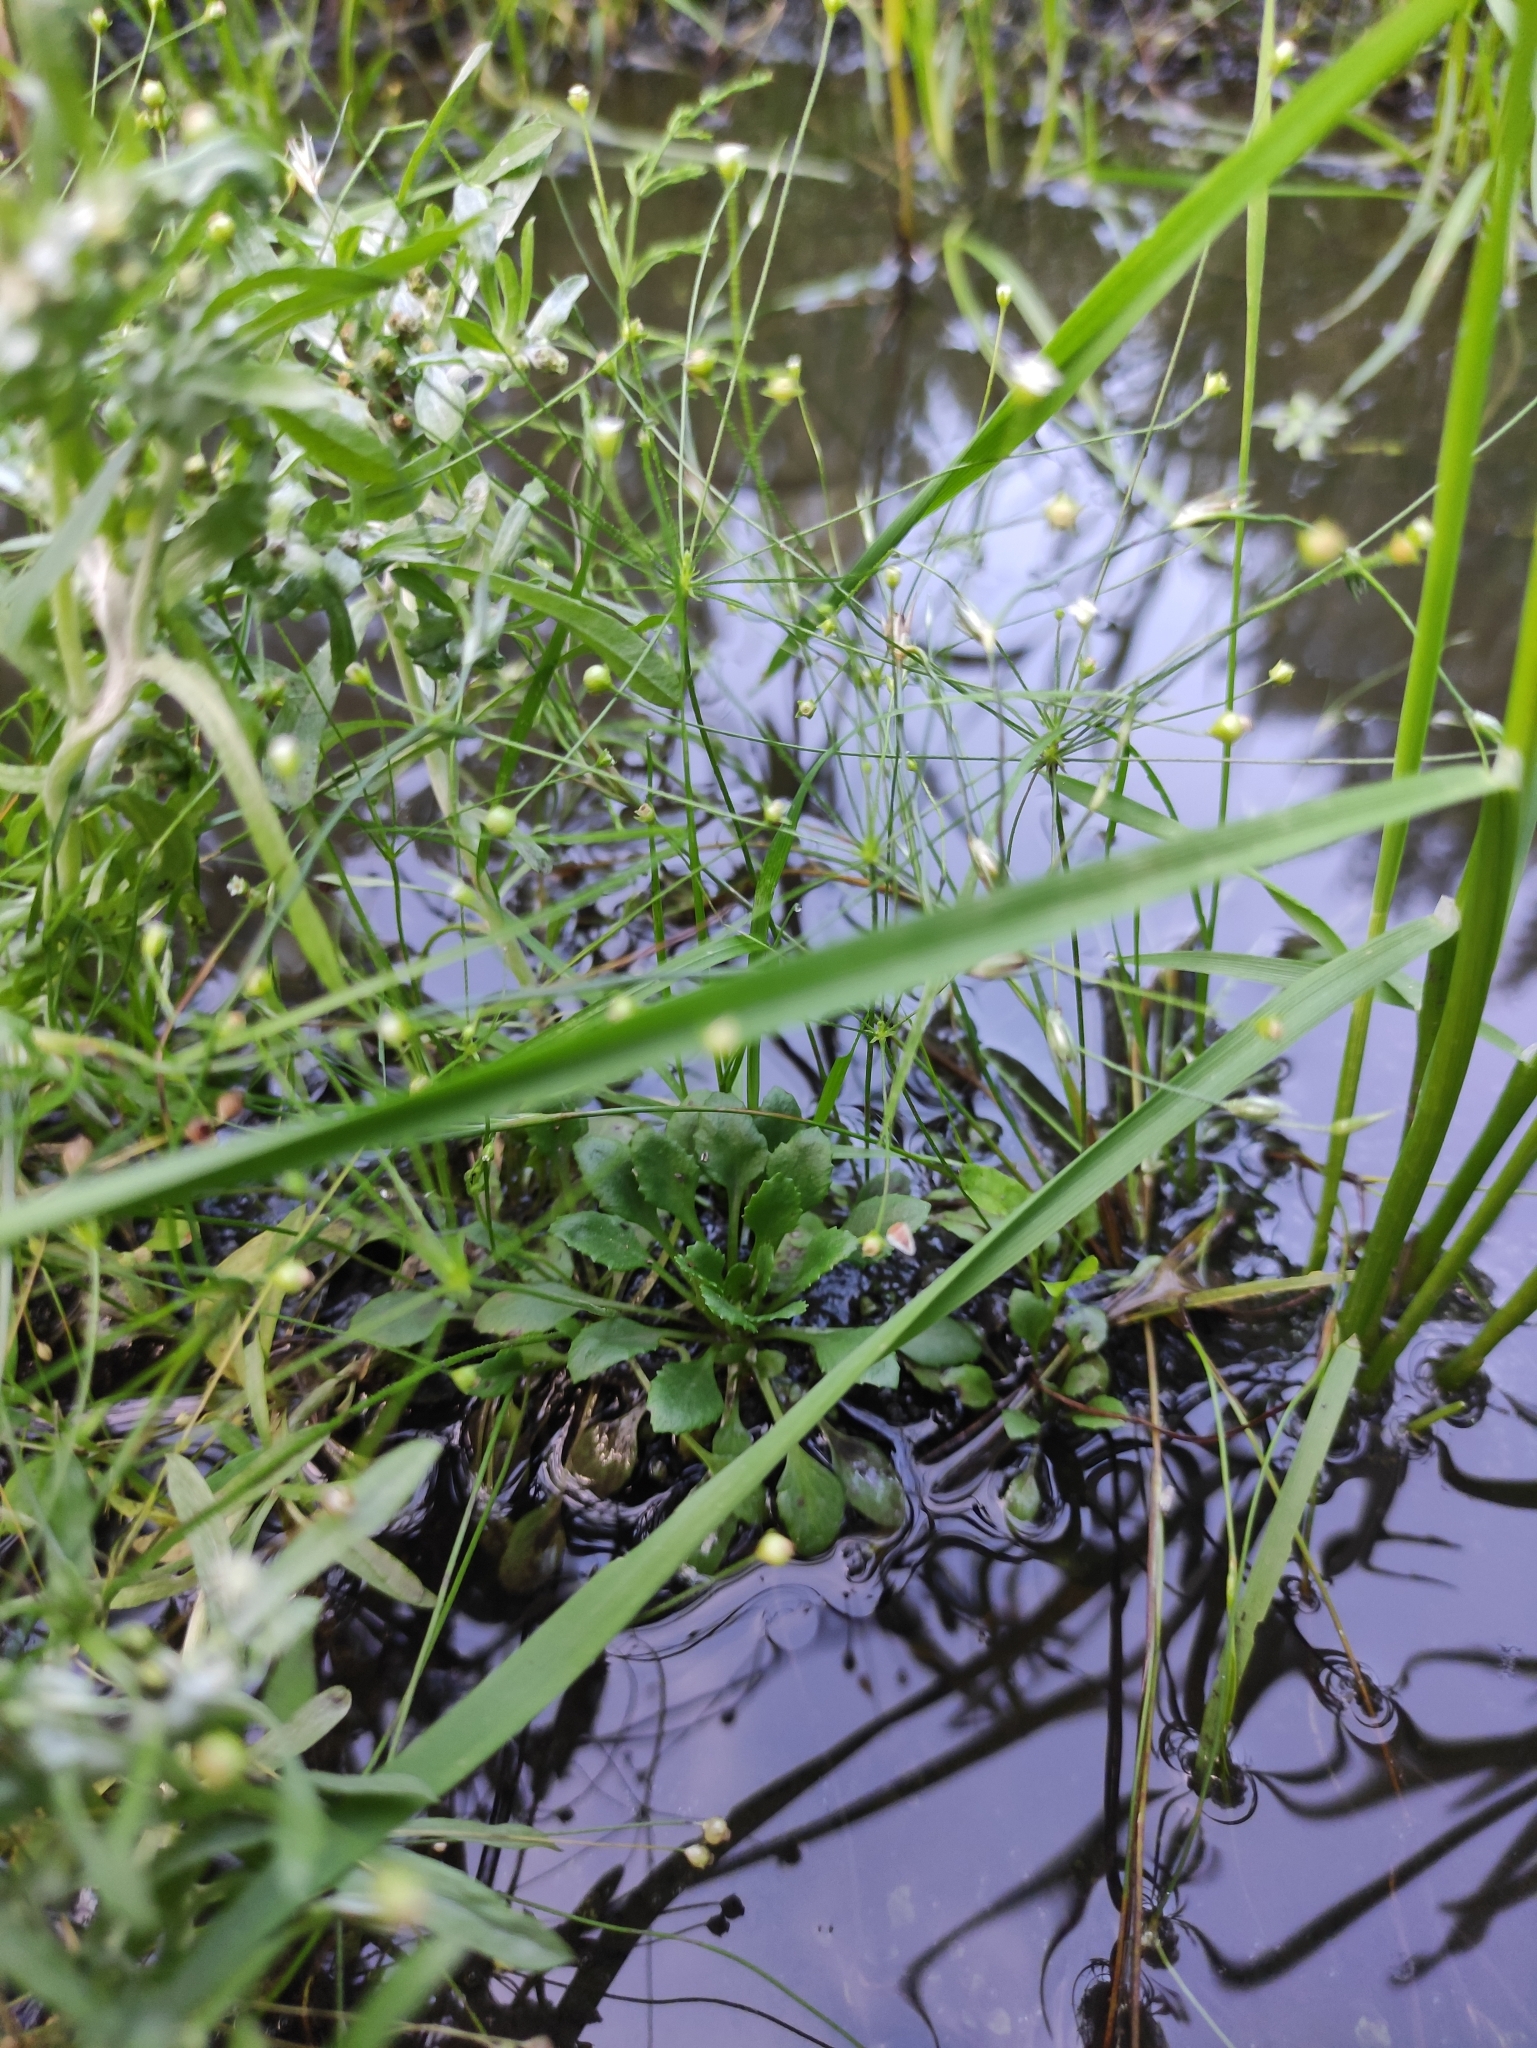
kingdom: Plantae
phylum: Tracheophyta
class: Magnoliopsida
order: Ericales
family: Primulaceae
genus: Androsace
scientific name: Androsace filiformis
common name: Filiform rock jasmine
